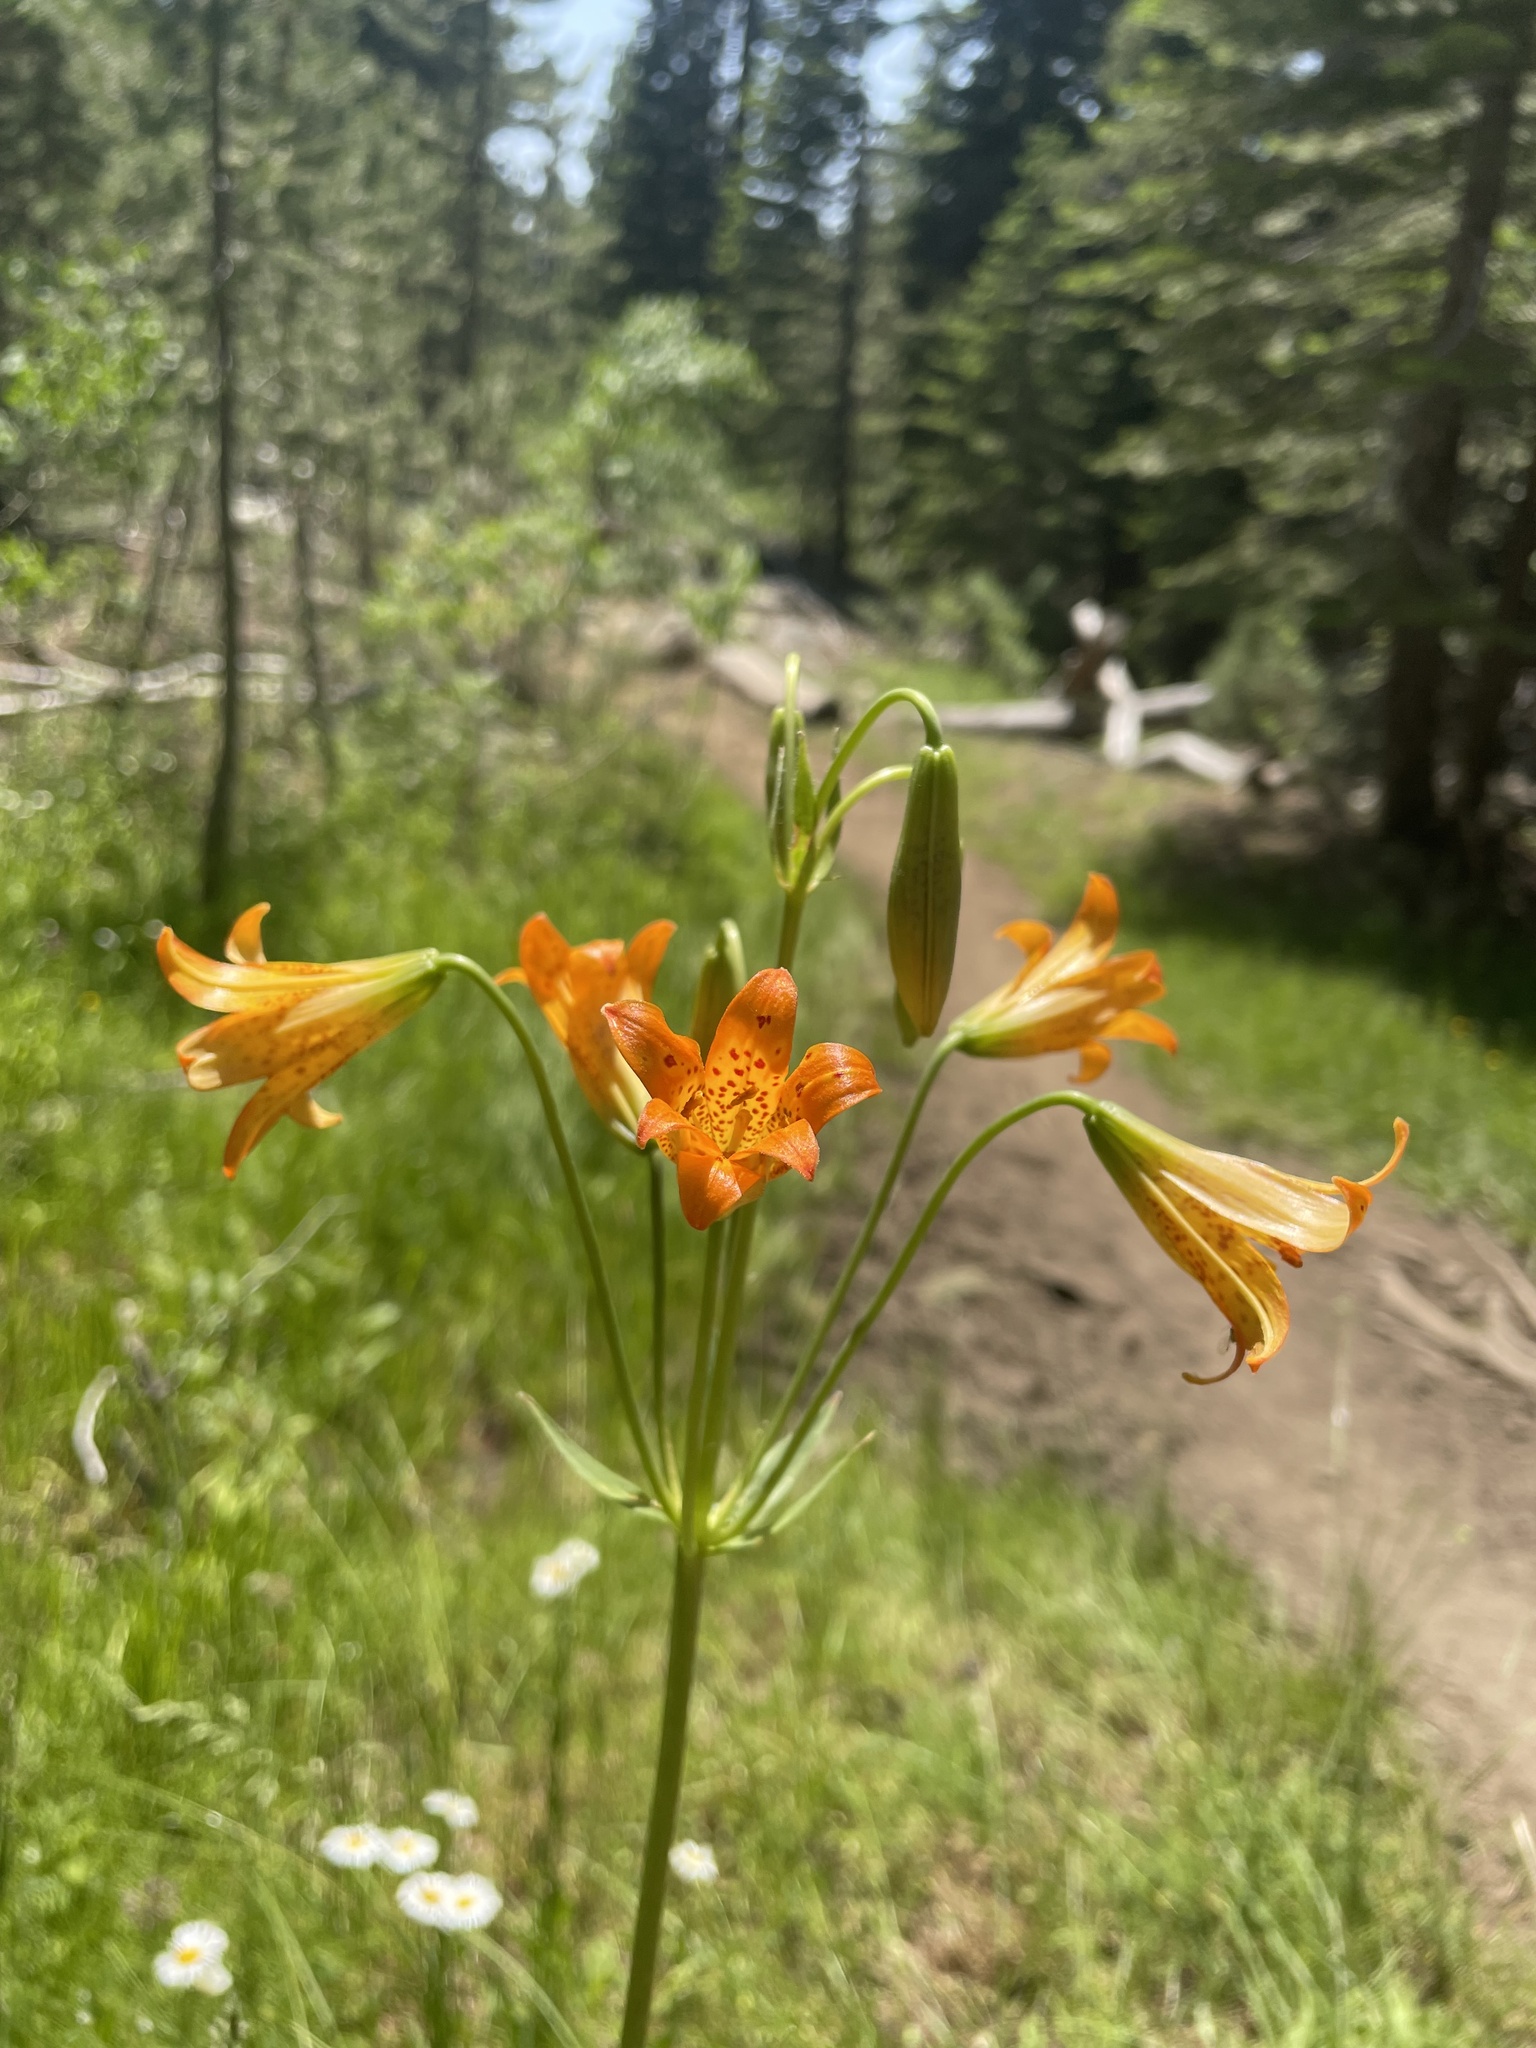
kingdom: Plantae
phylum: Tracheophyta
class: Liliopsida
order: Liliales
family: Liliaceae
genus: Lilium
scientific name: Lilium parvum
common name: Alpine lily
